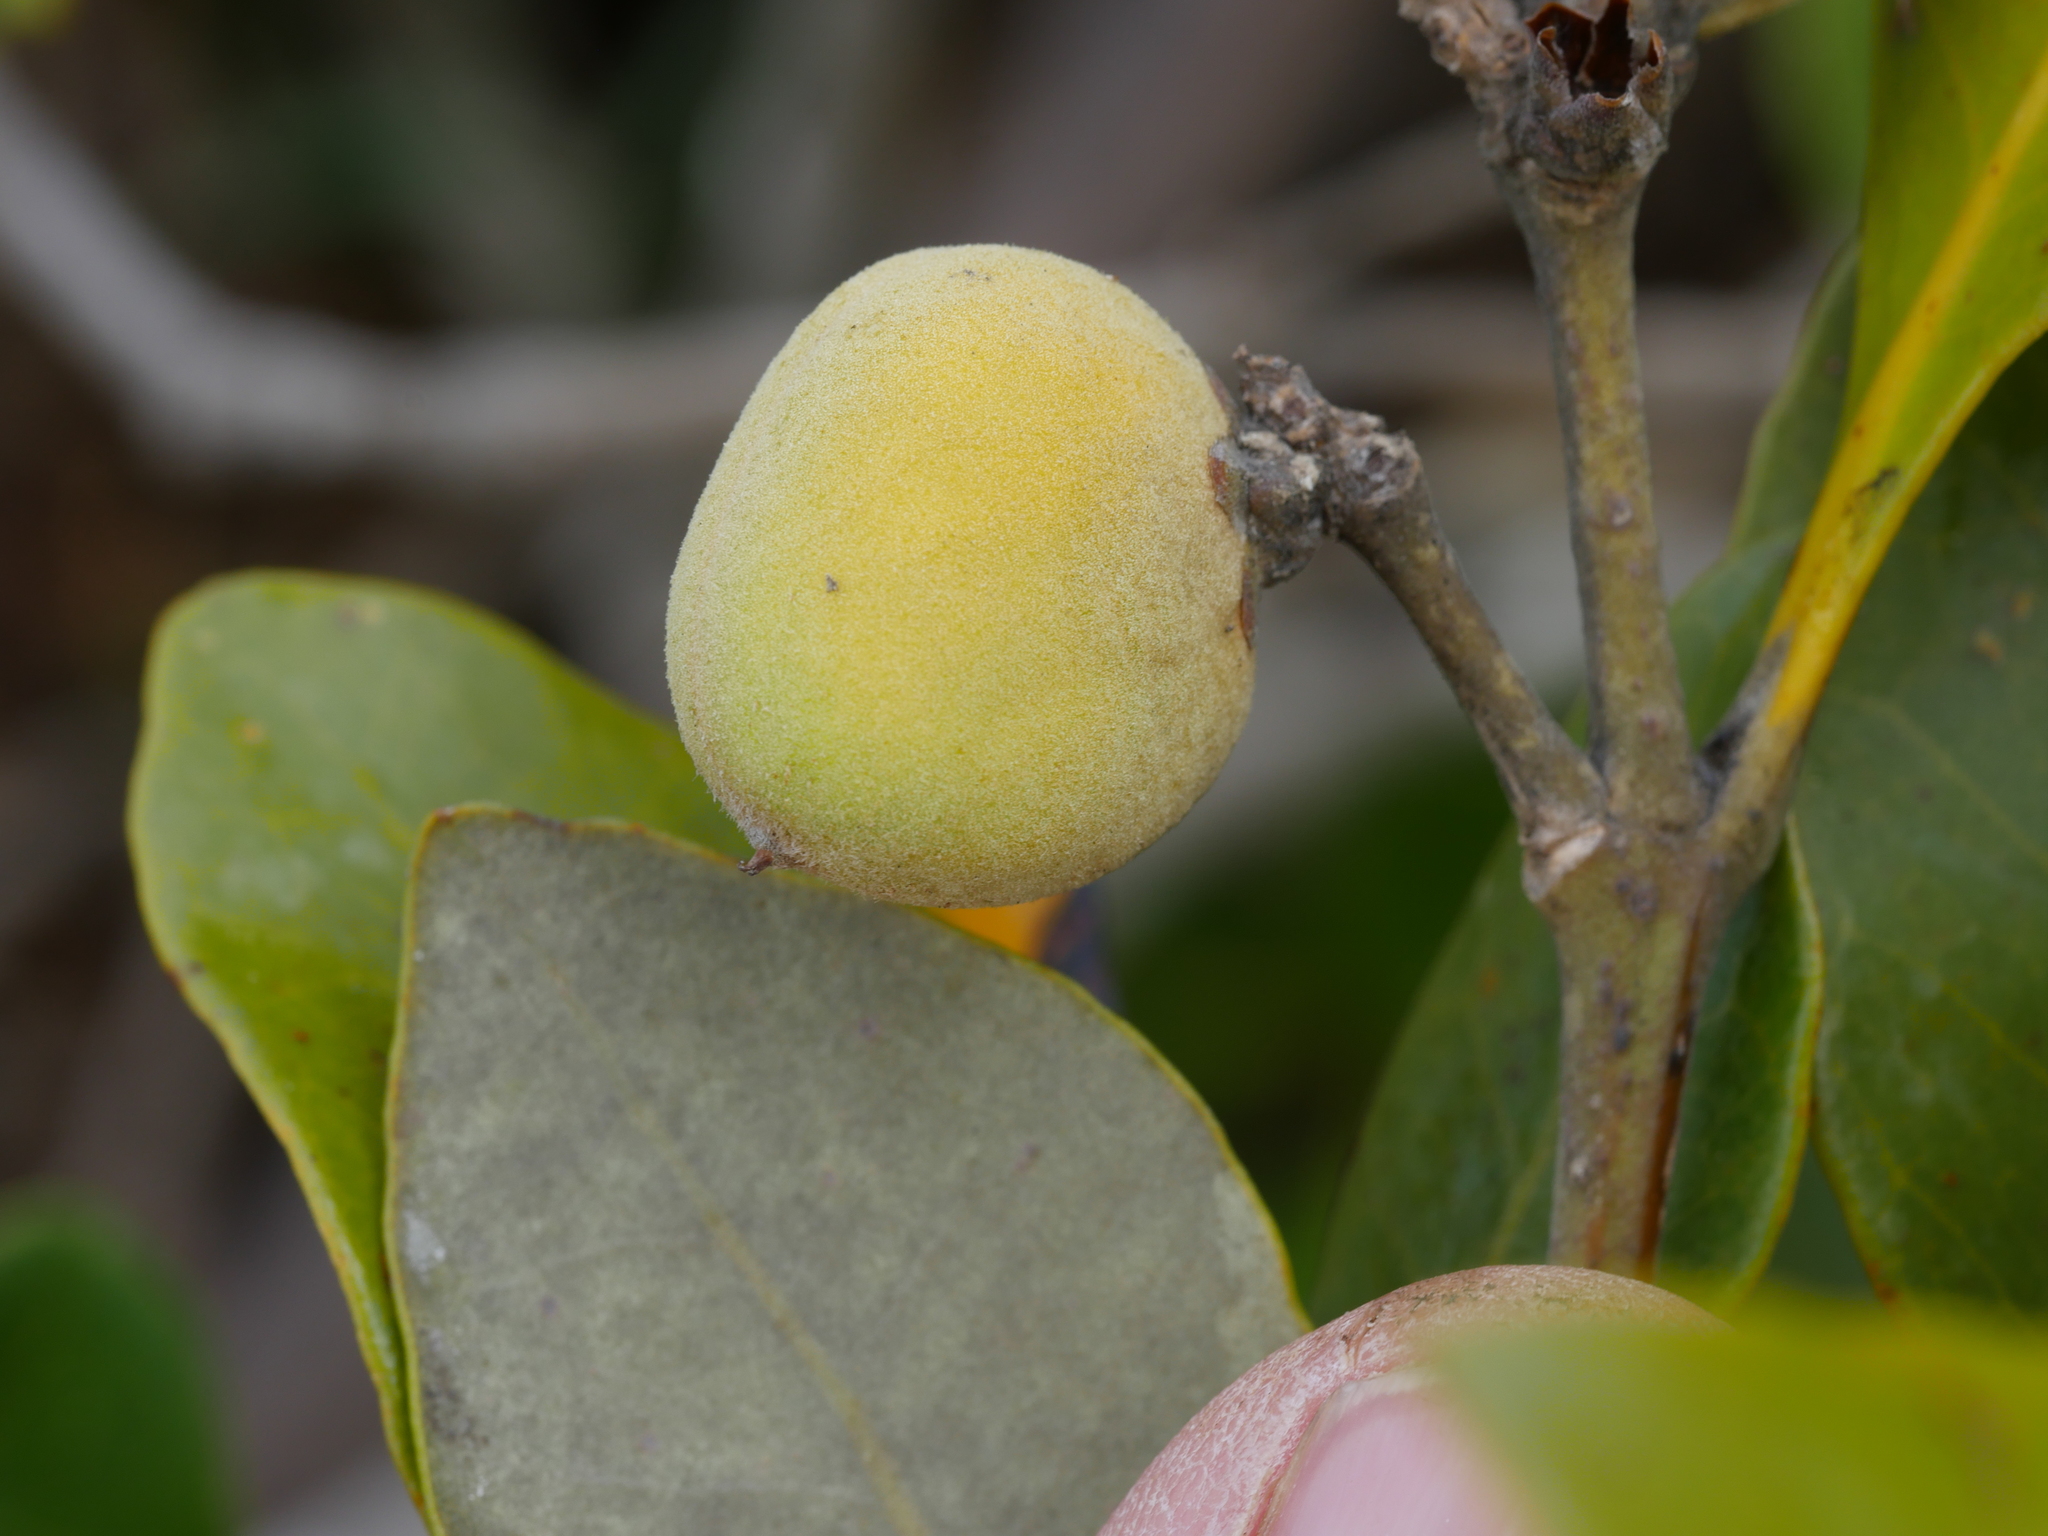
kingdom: Plantae
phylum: Tracheophyta
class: Magnoliopsida
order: Lamiales
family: Acanthaceae
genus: Avicennia
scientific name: Avicennia marina
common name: Gray mangrove
